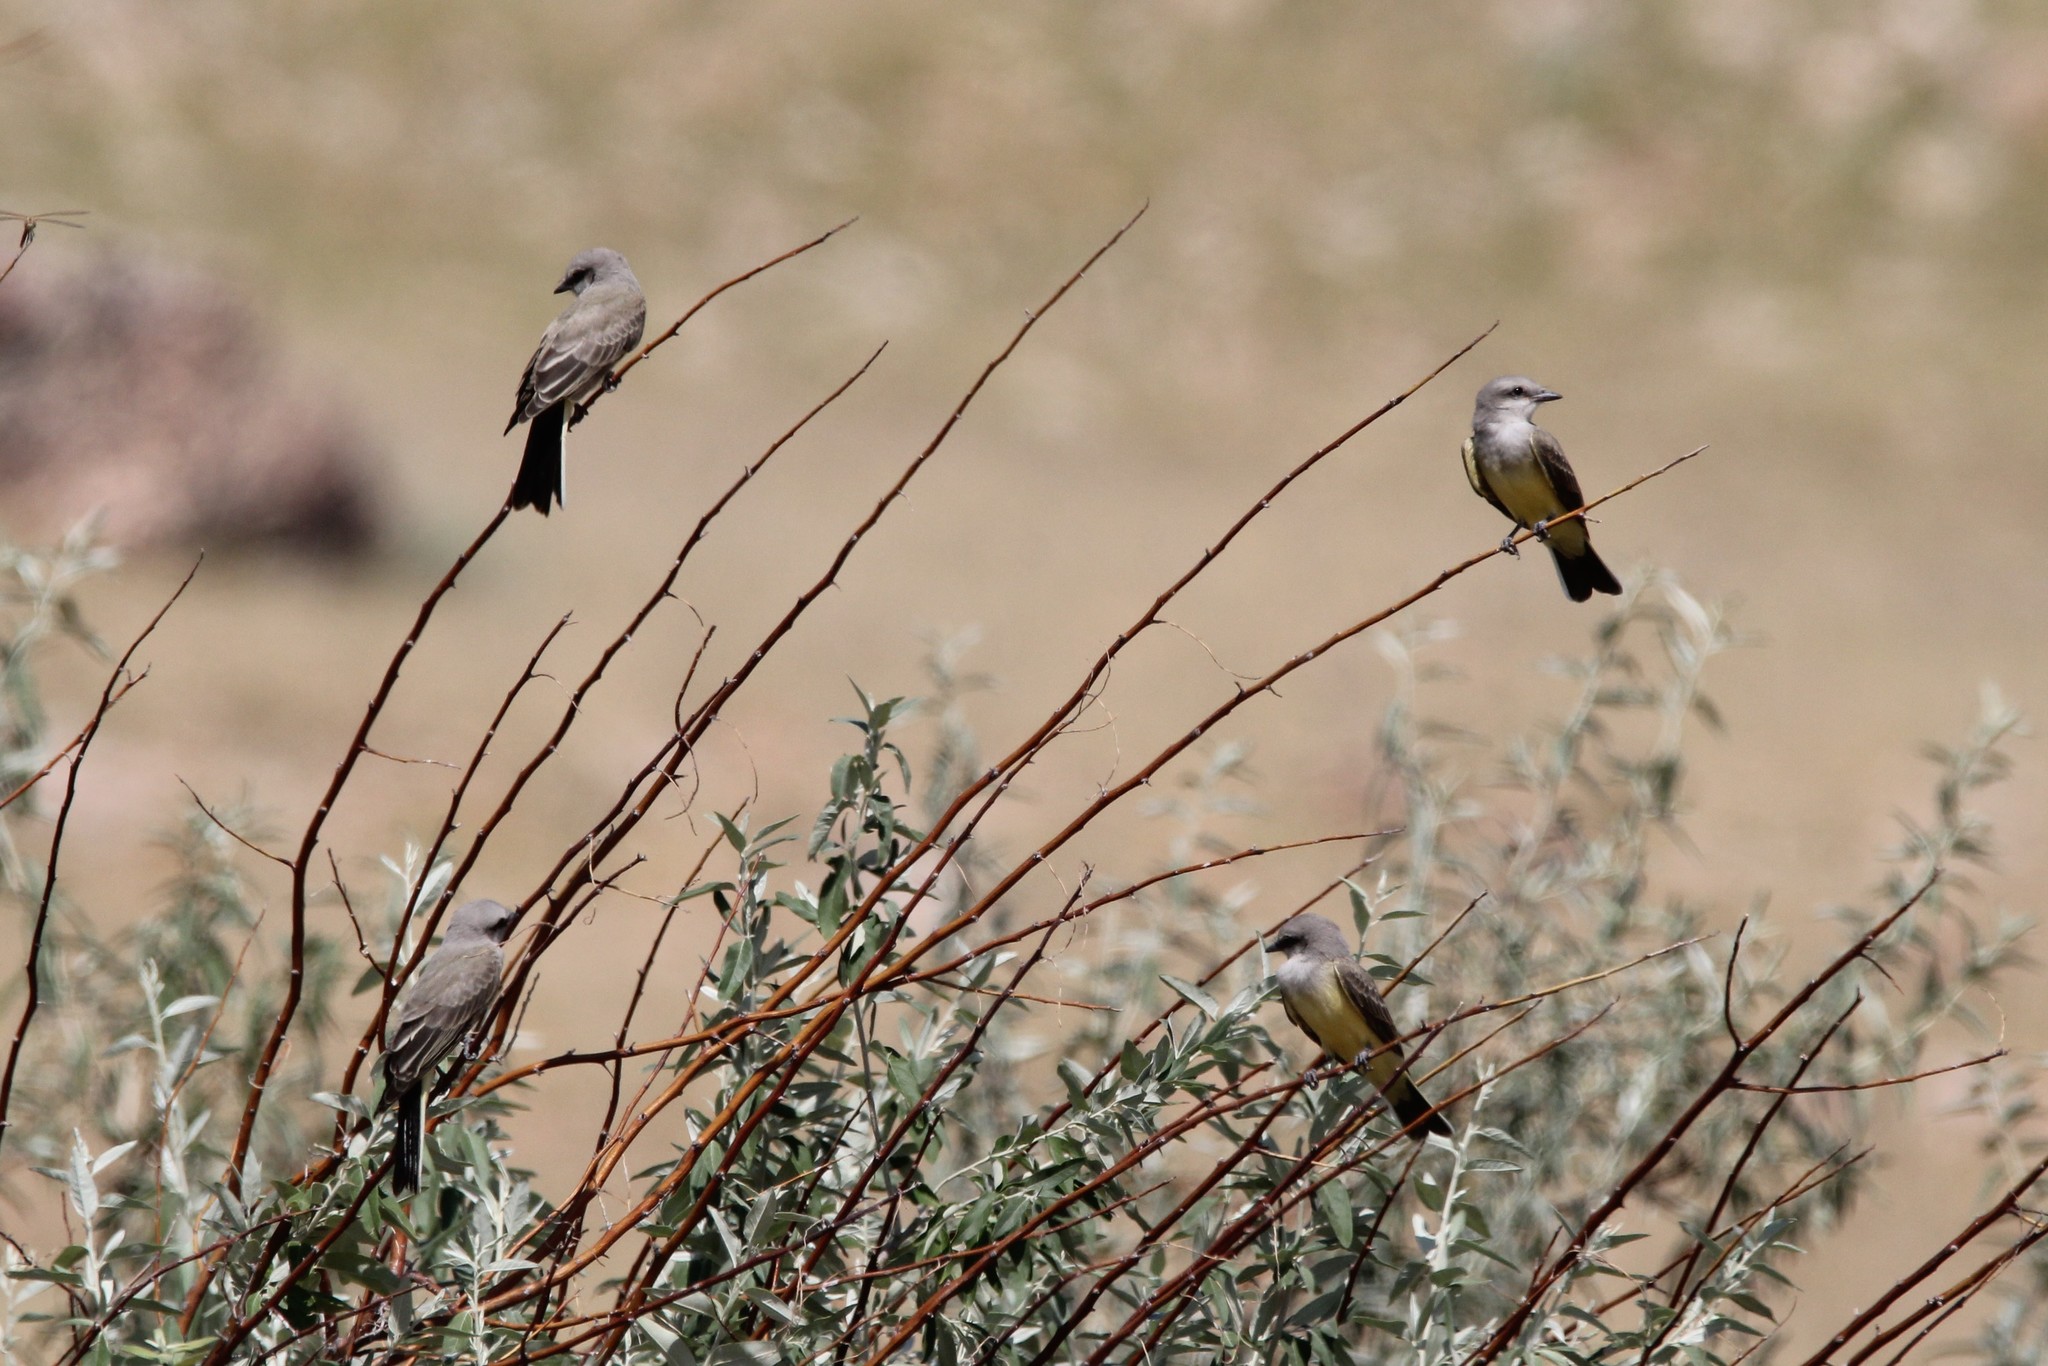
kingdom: Animalia
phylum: Chordata
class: Aves
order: Passeriformes
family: Tyrannidae
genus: Tyrannus
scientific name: Tyrannus verticalis
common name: Western kingbird
